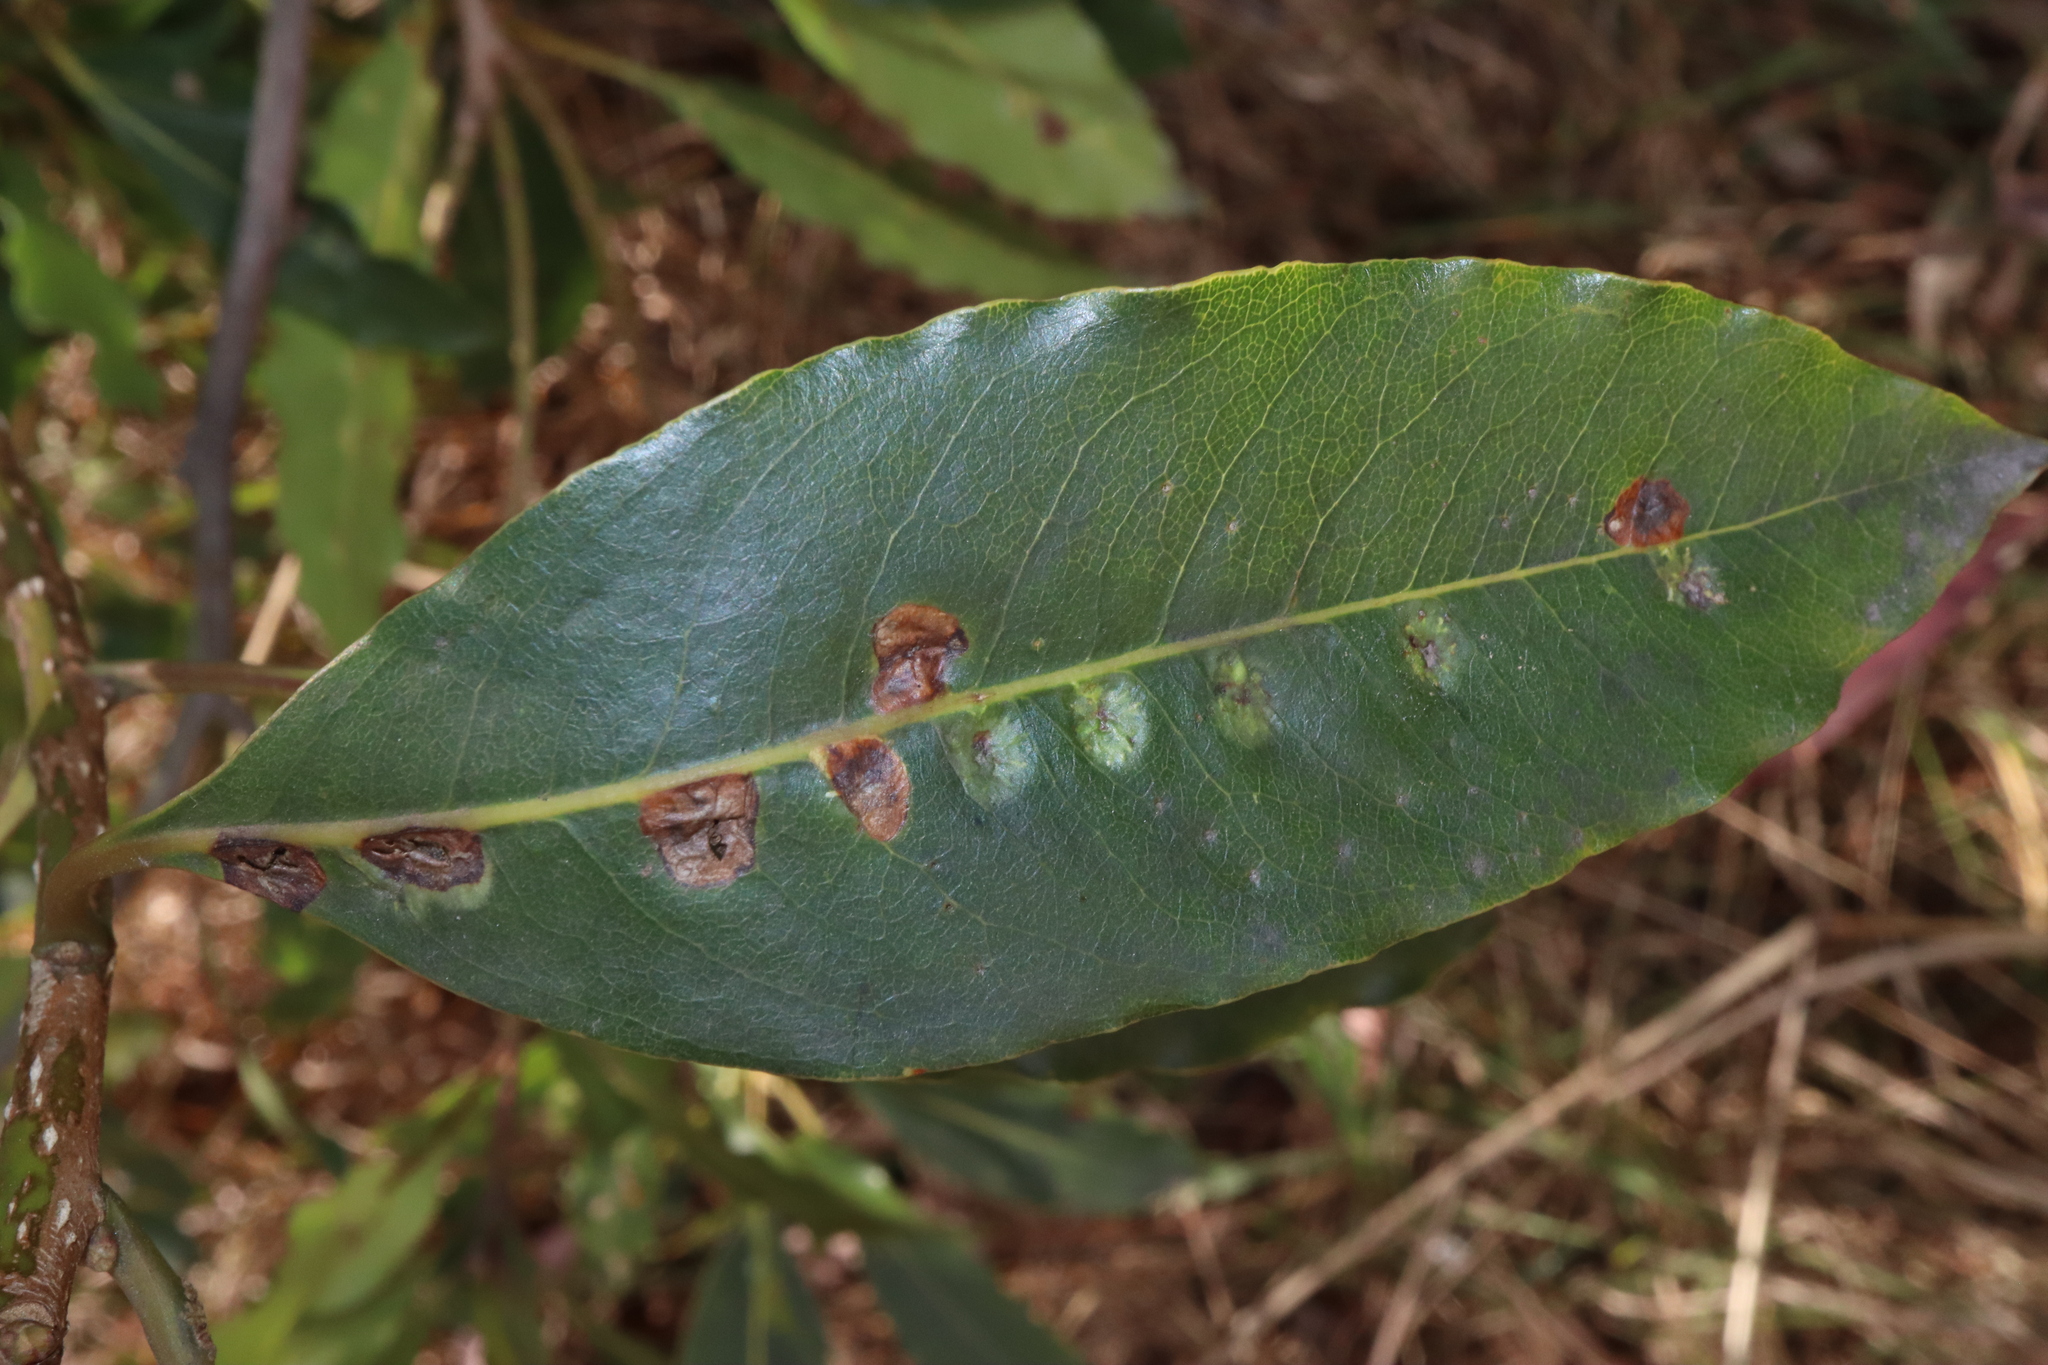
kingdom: Animalia
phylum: Arthropoda
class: Insecta
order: Diptera
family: Agromyzidae
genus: Phytoliriomyza
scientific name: Phytoliriomyza pittosporophylli
